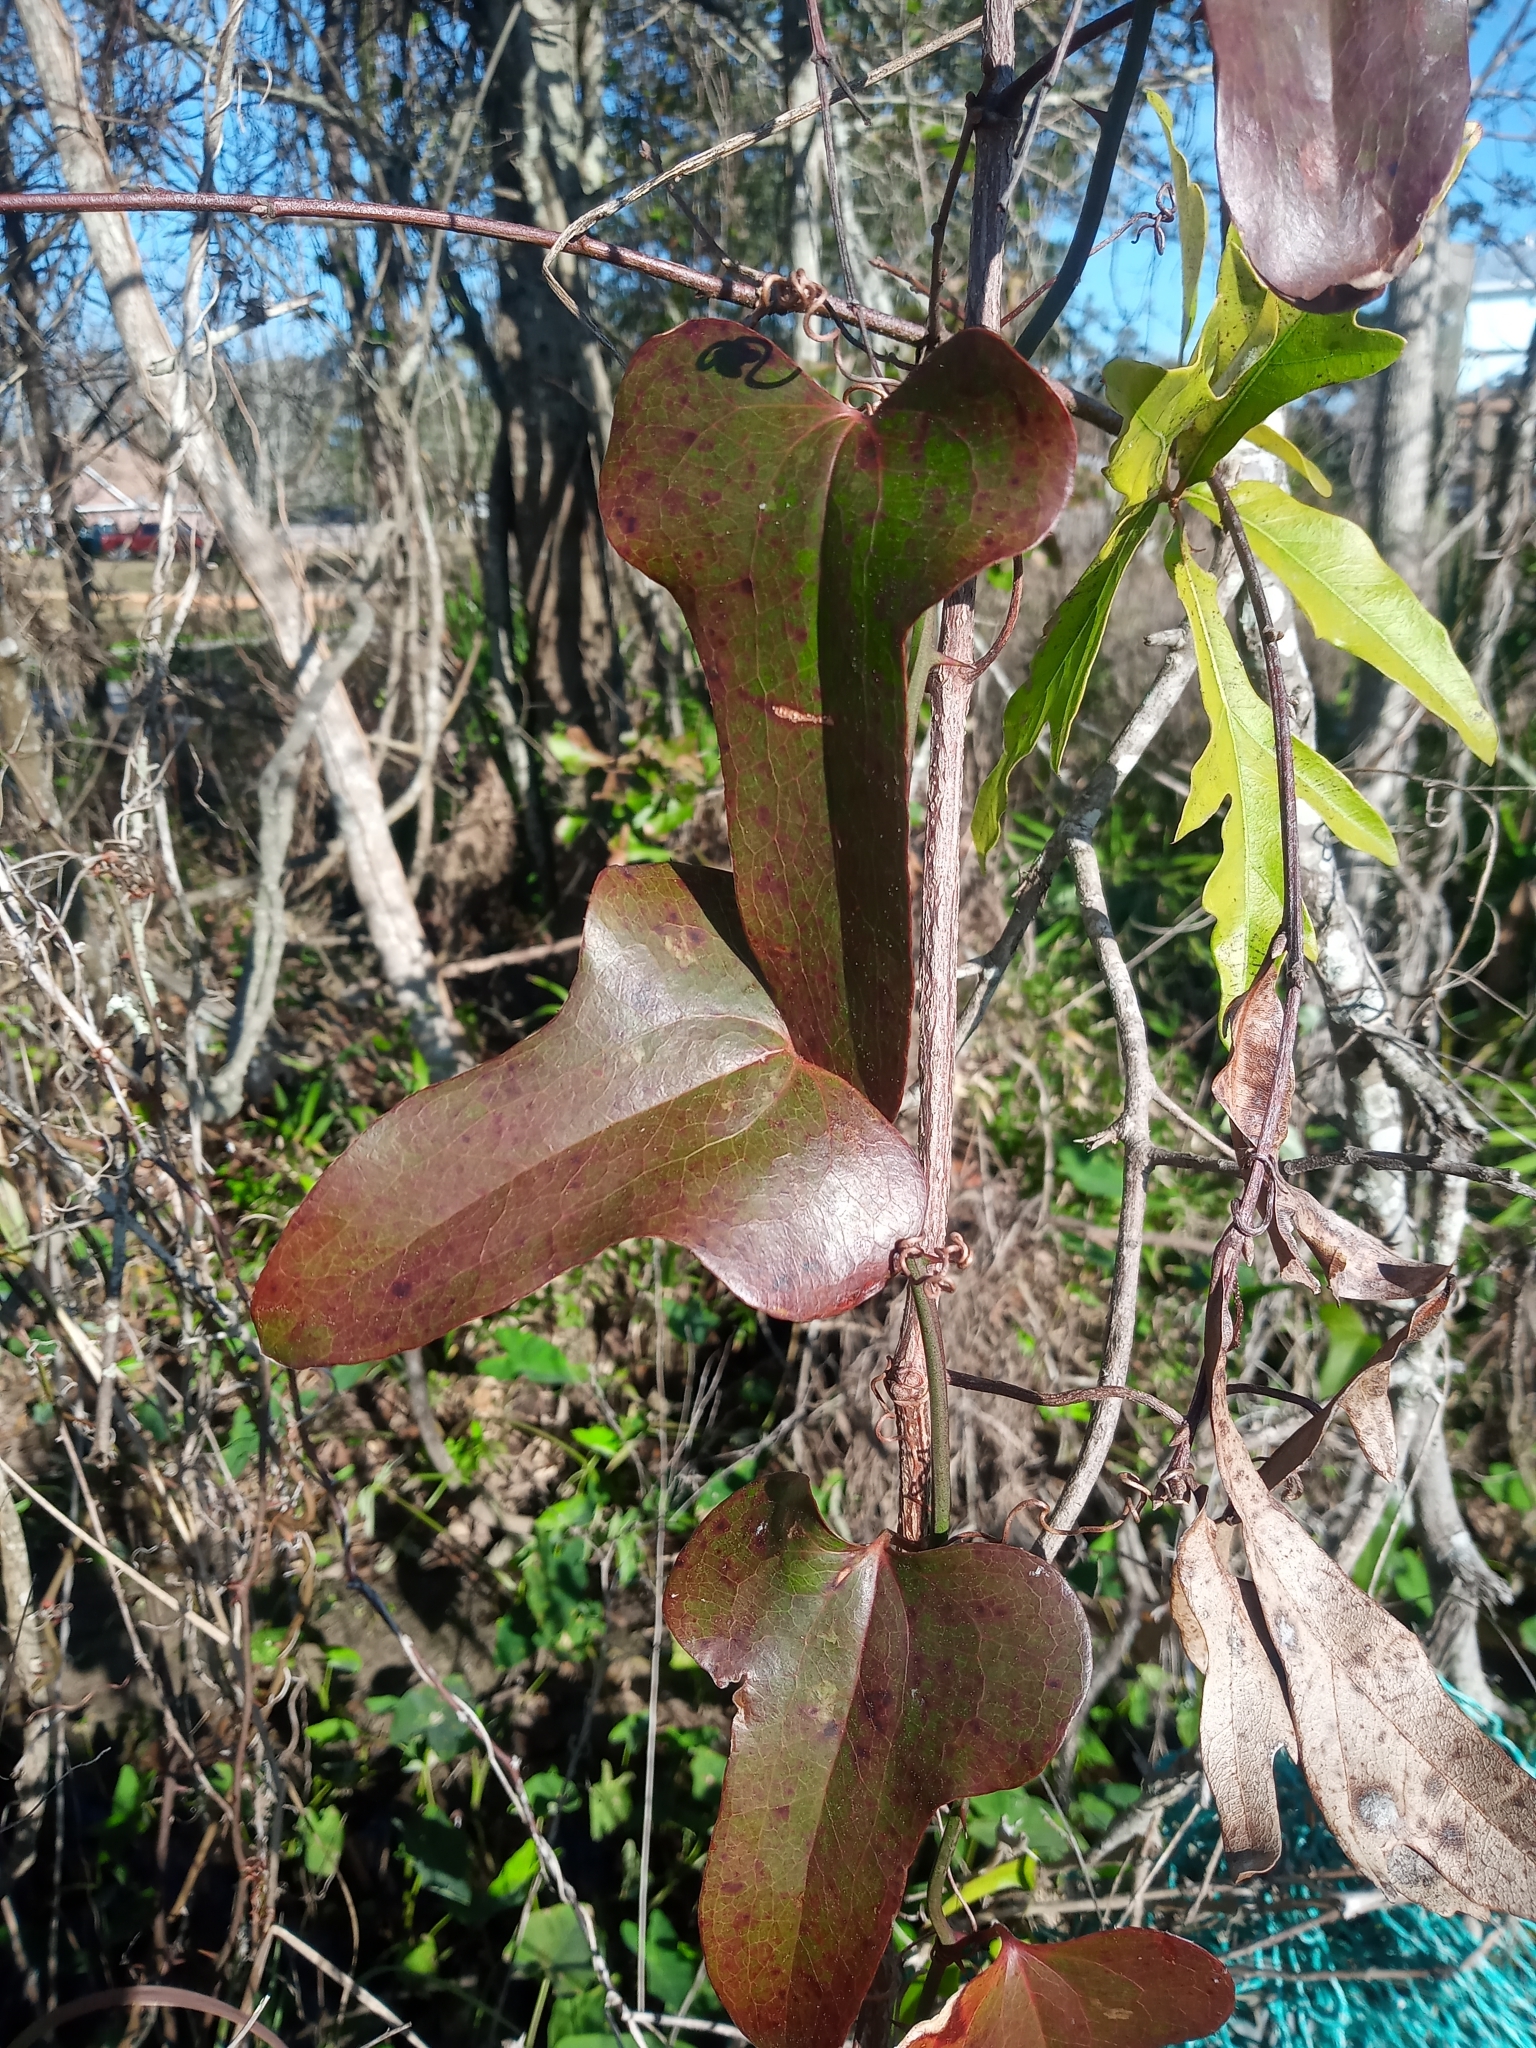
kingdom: Plantae
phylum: Tracheophyta
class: Liliopsida
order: Liliales
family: Smilacaceae
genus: Smilax
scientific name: Smilax bona-nox
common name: Catbrier
